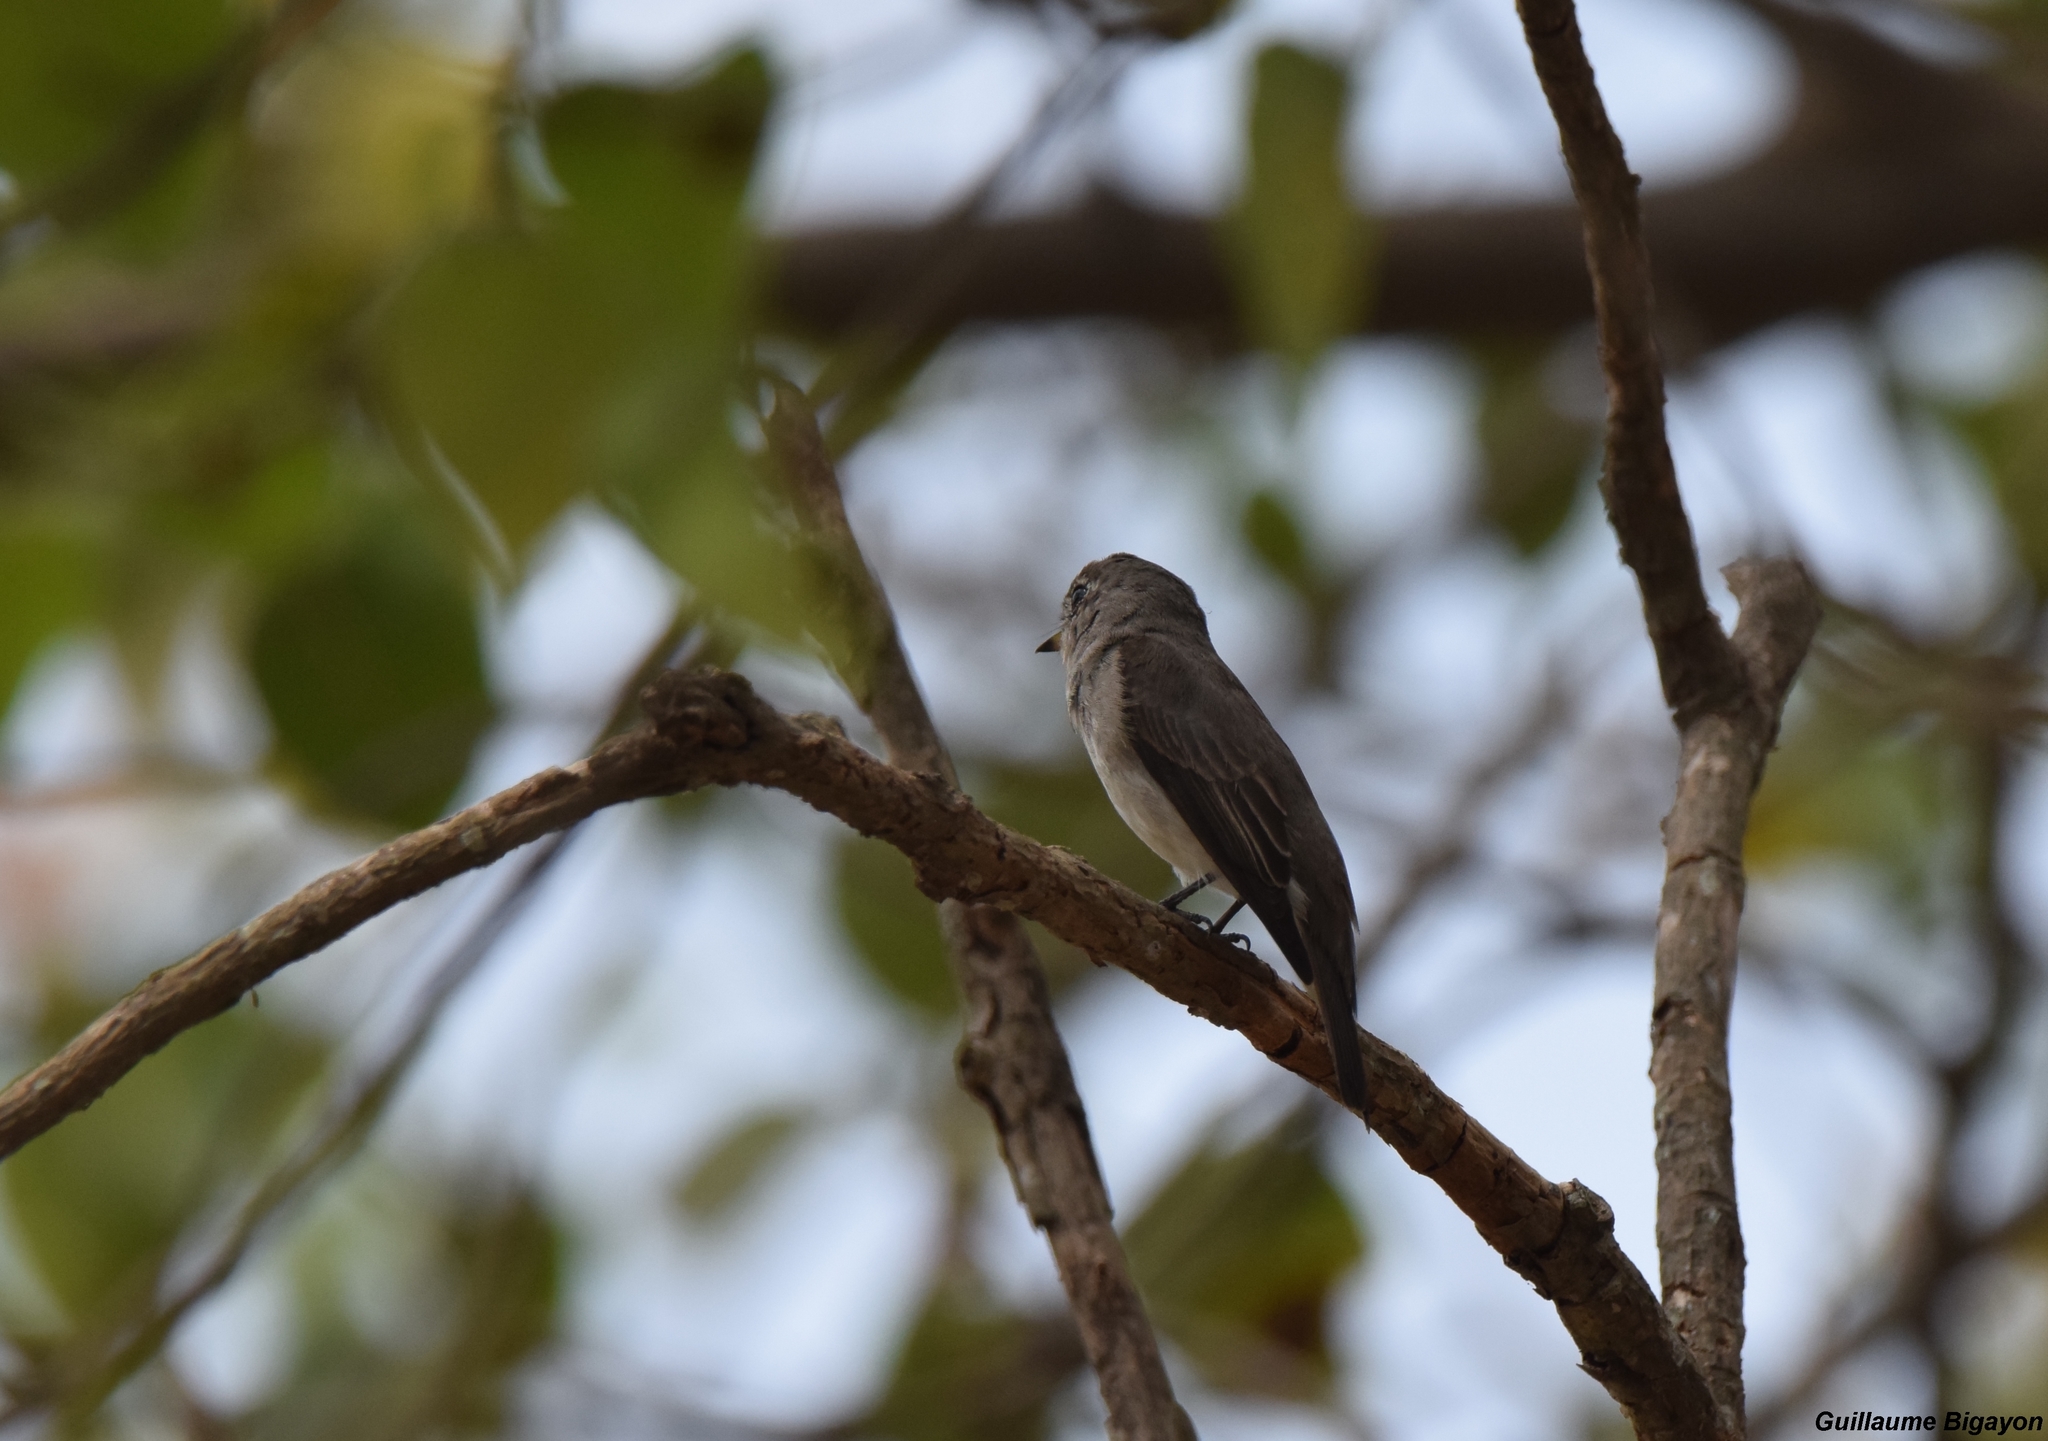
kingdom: Animalia
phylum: Chordata
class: Aves
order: Passeriformes
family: Muscicapidae
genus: Muscicapa
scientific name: Muscicapa latirostris
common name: Asian brown flycatcher
